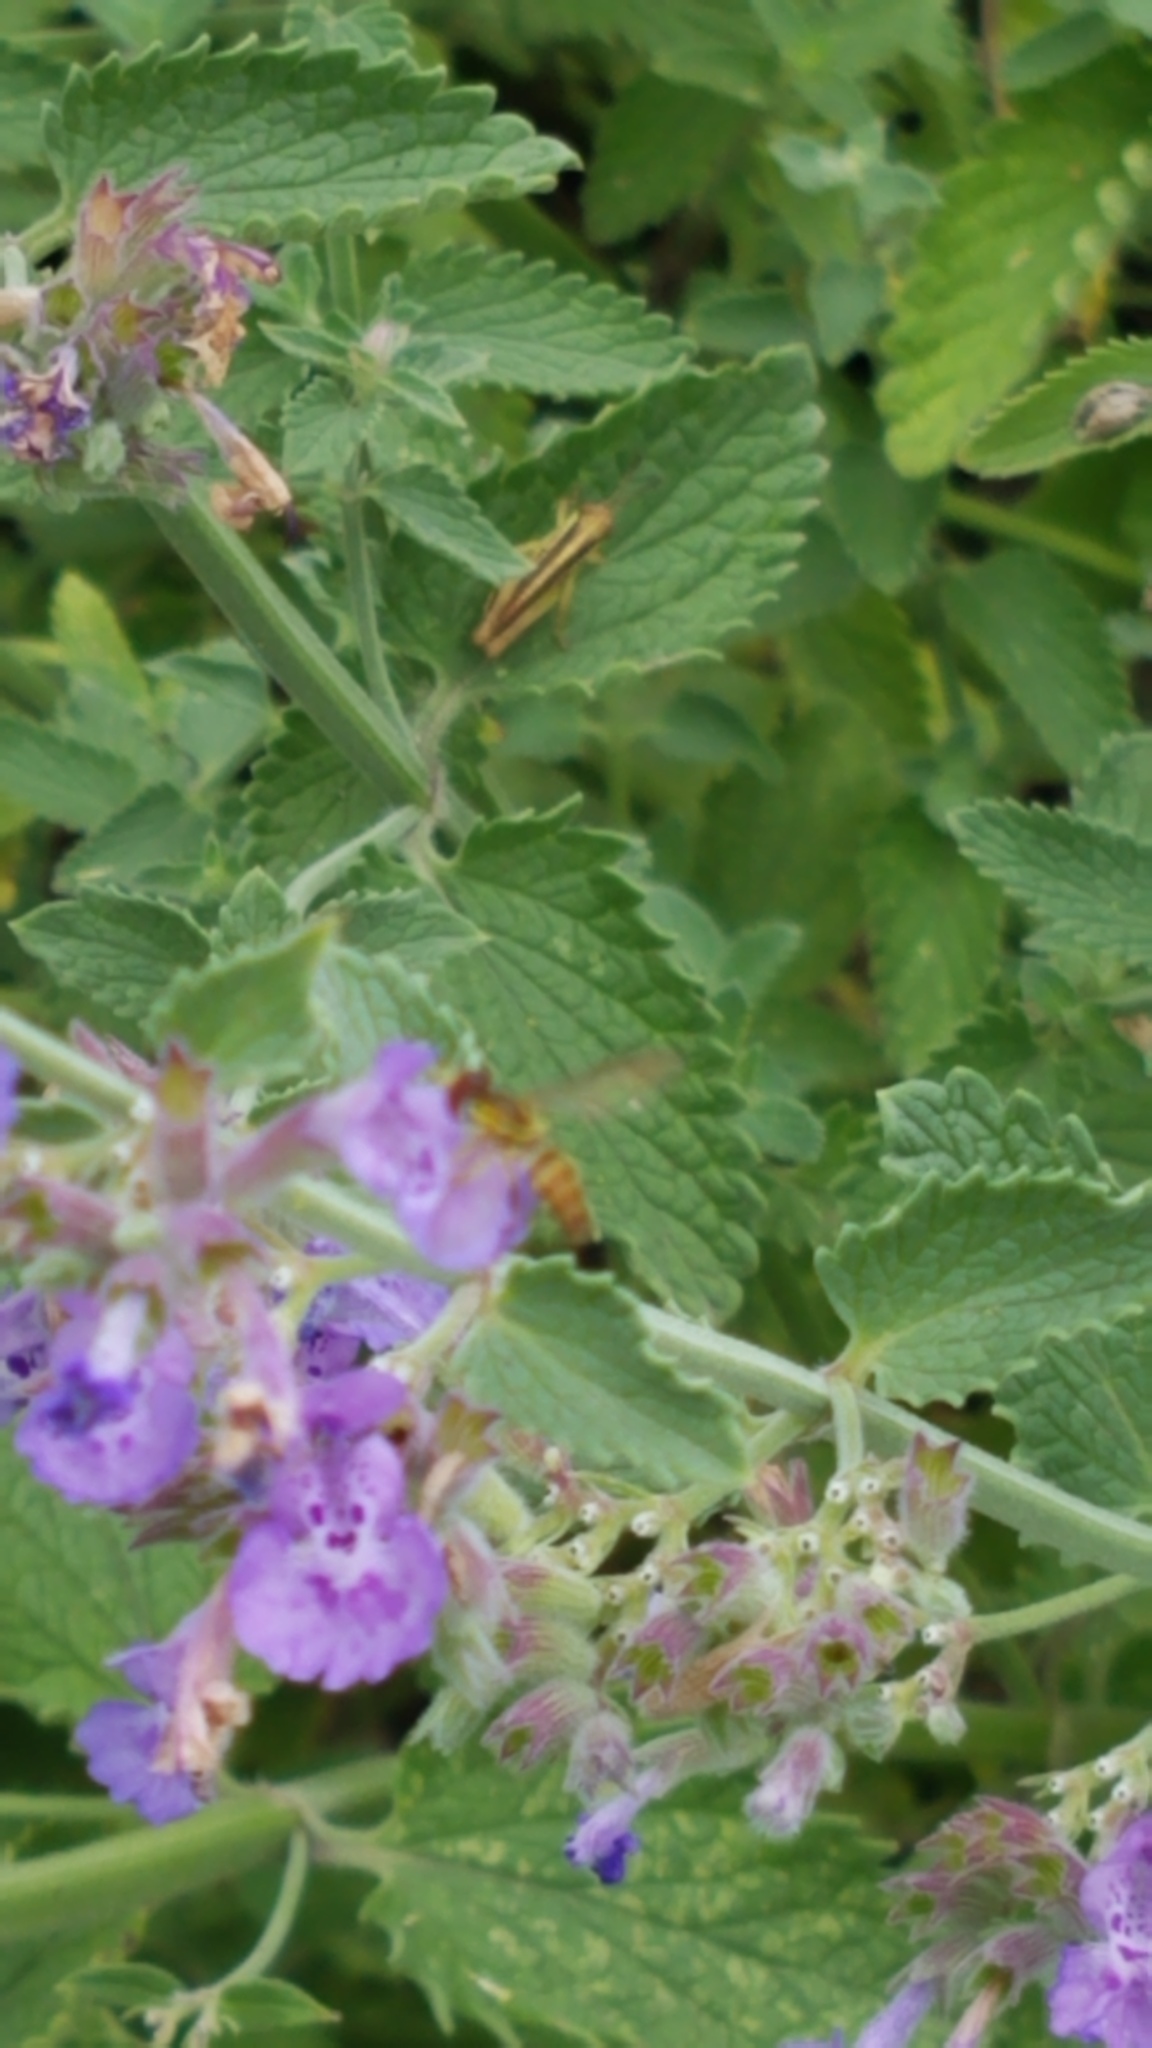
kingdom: Animalia
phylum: Arthropoda
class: Insecta
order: Diptera
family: Syrphidae
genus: Toxomerus
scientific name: Toxomerus geminatus
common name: Eastern calligrapher
